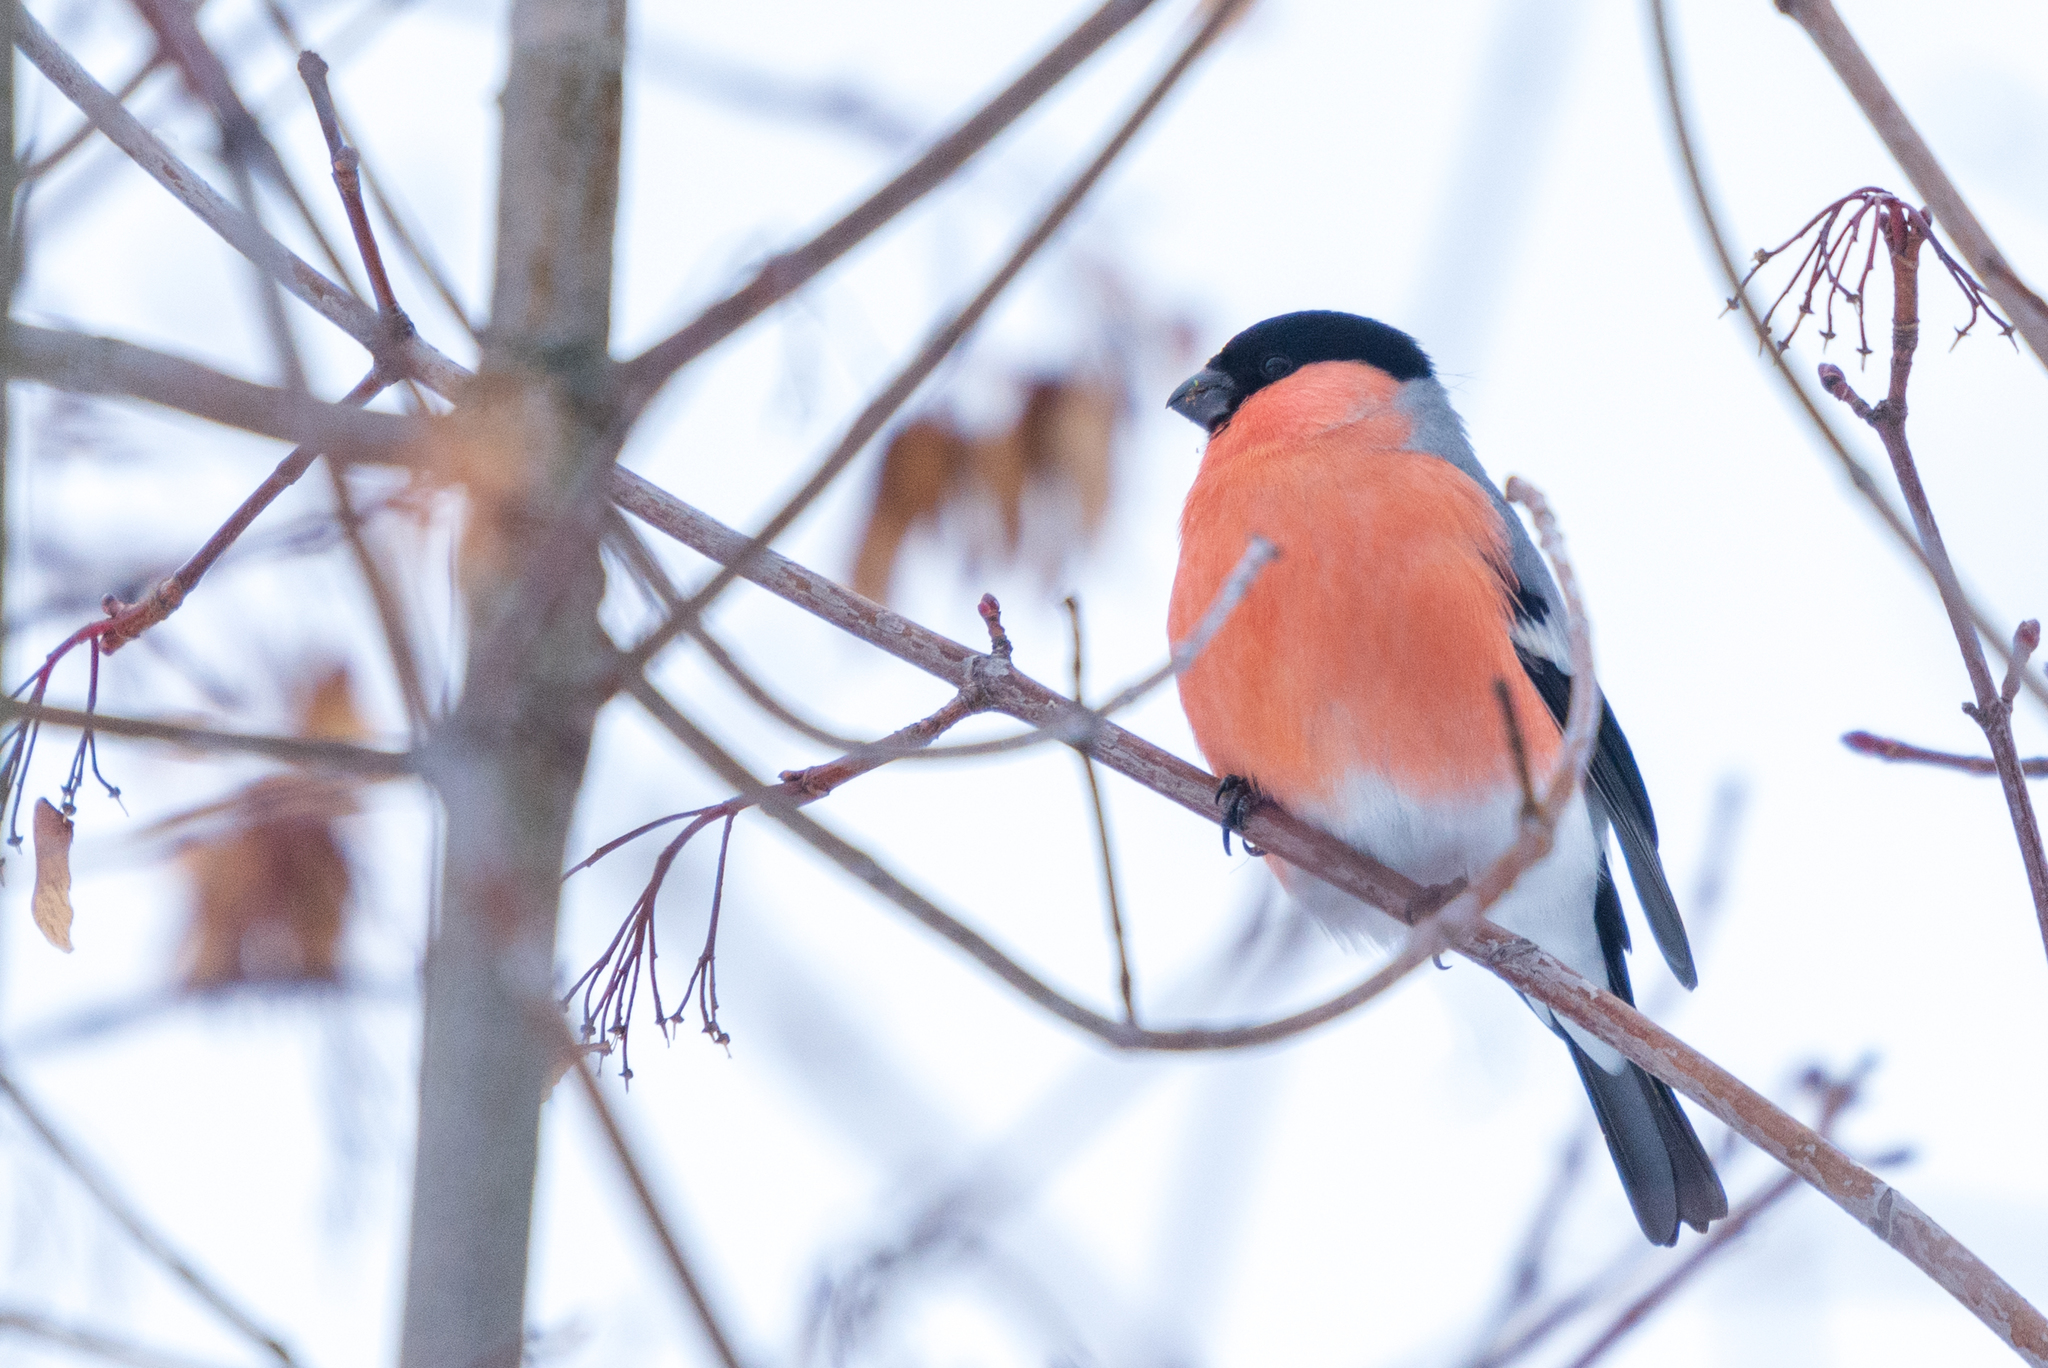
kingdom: Animalia
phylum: Chordata
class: Aves
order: Passeriformes
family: Fringillidae
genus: Pyrrhula
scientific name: Pyrrhula pyrrhula
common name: Eurasian bullfinch
